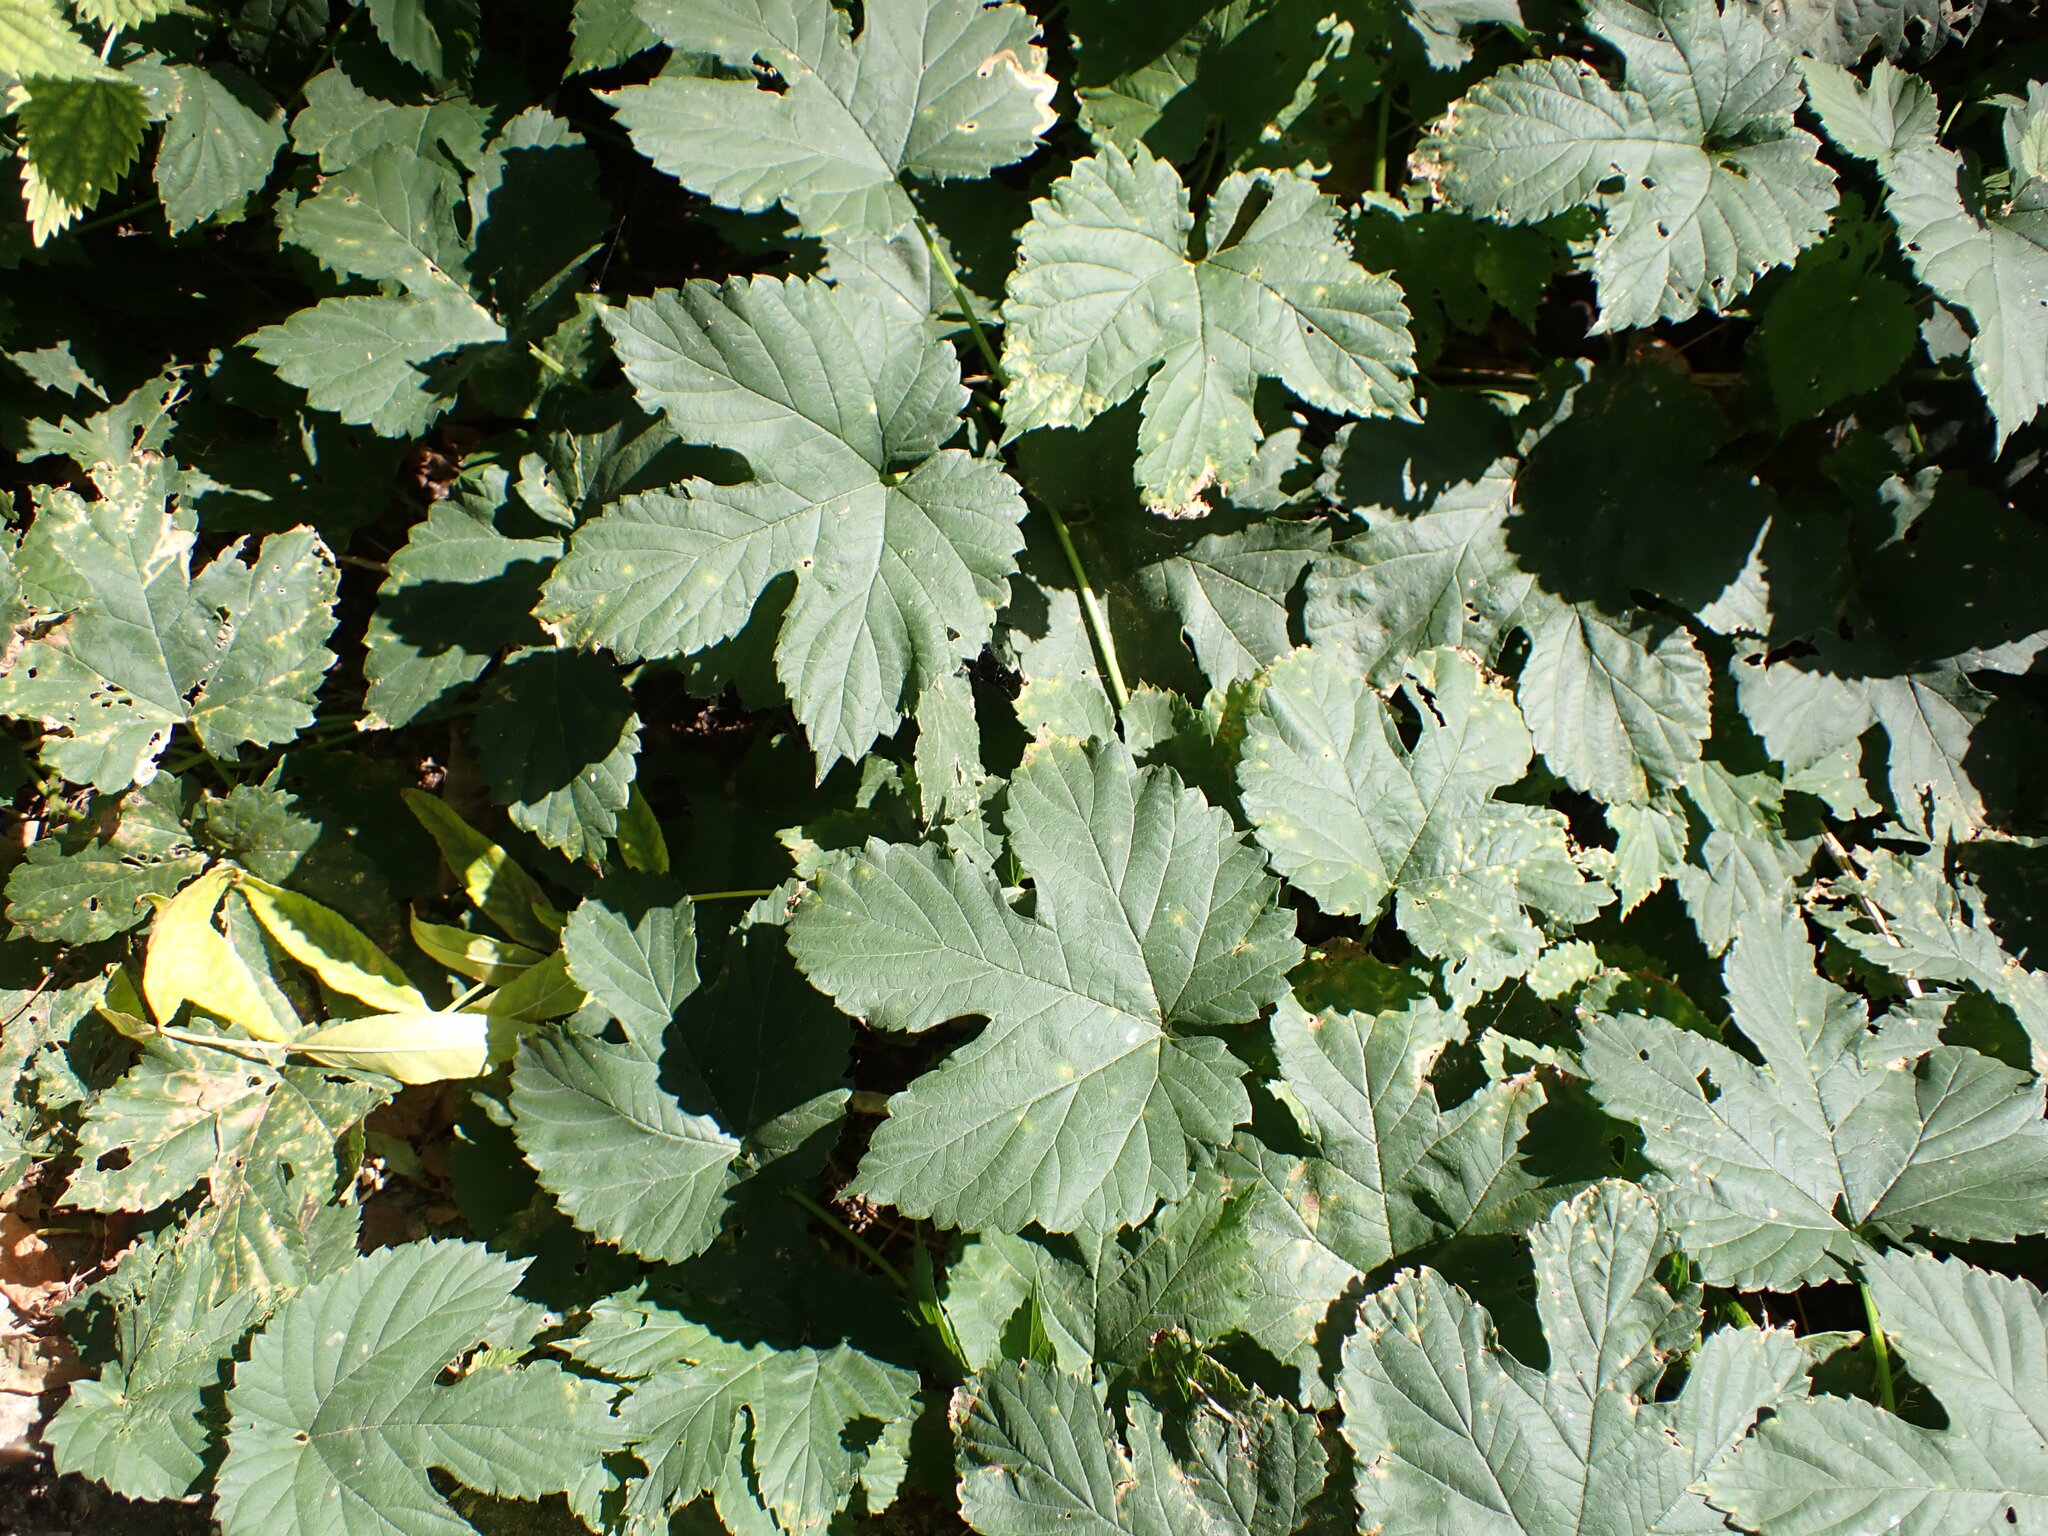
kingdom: Plantae
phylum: Tracheophyta
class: Magnoliopsida
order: Rosales
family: Cannabaceae
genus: Humulus
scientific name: Humulus lupulus
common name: Hop
